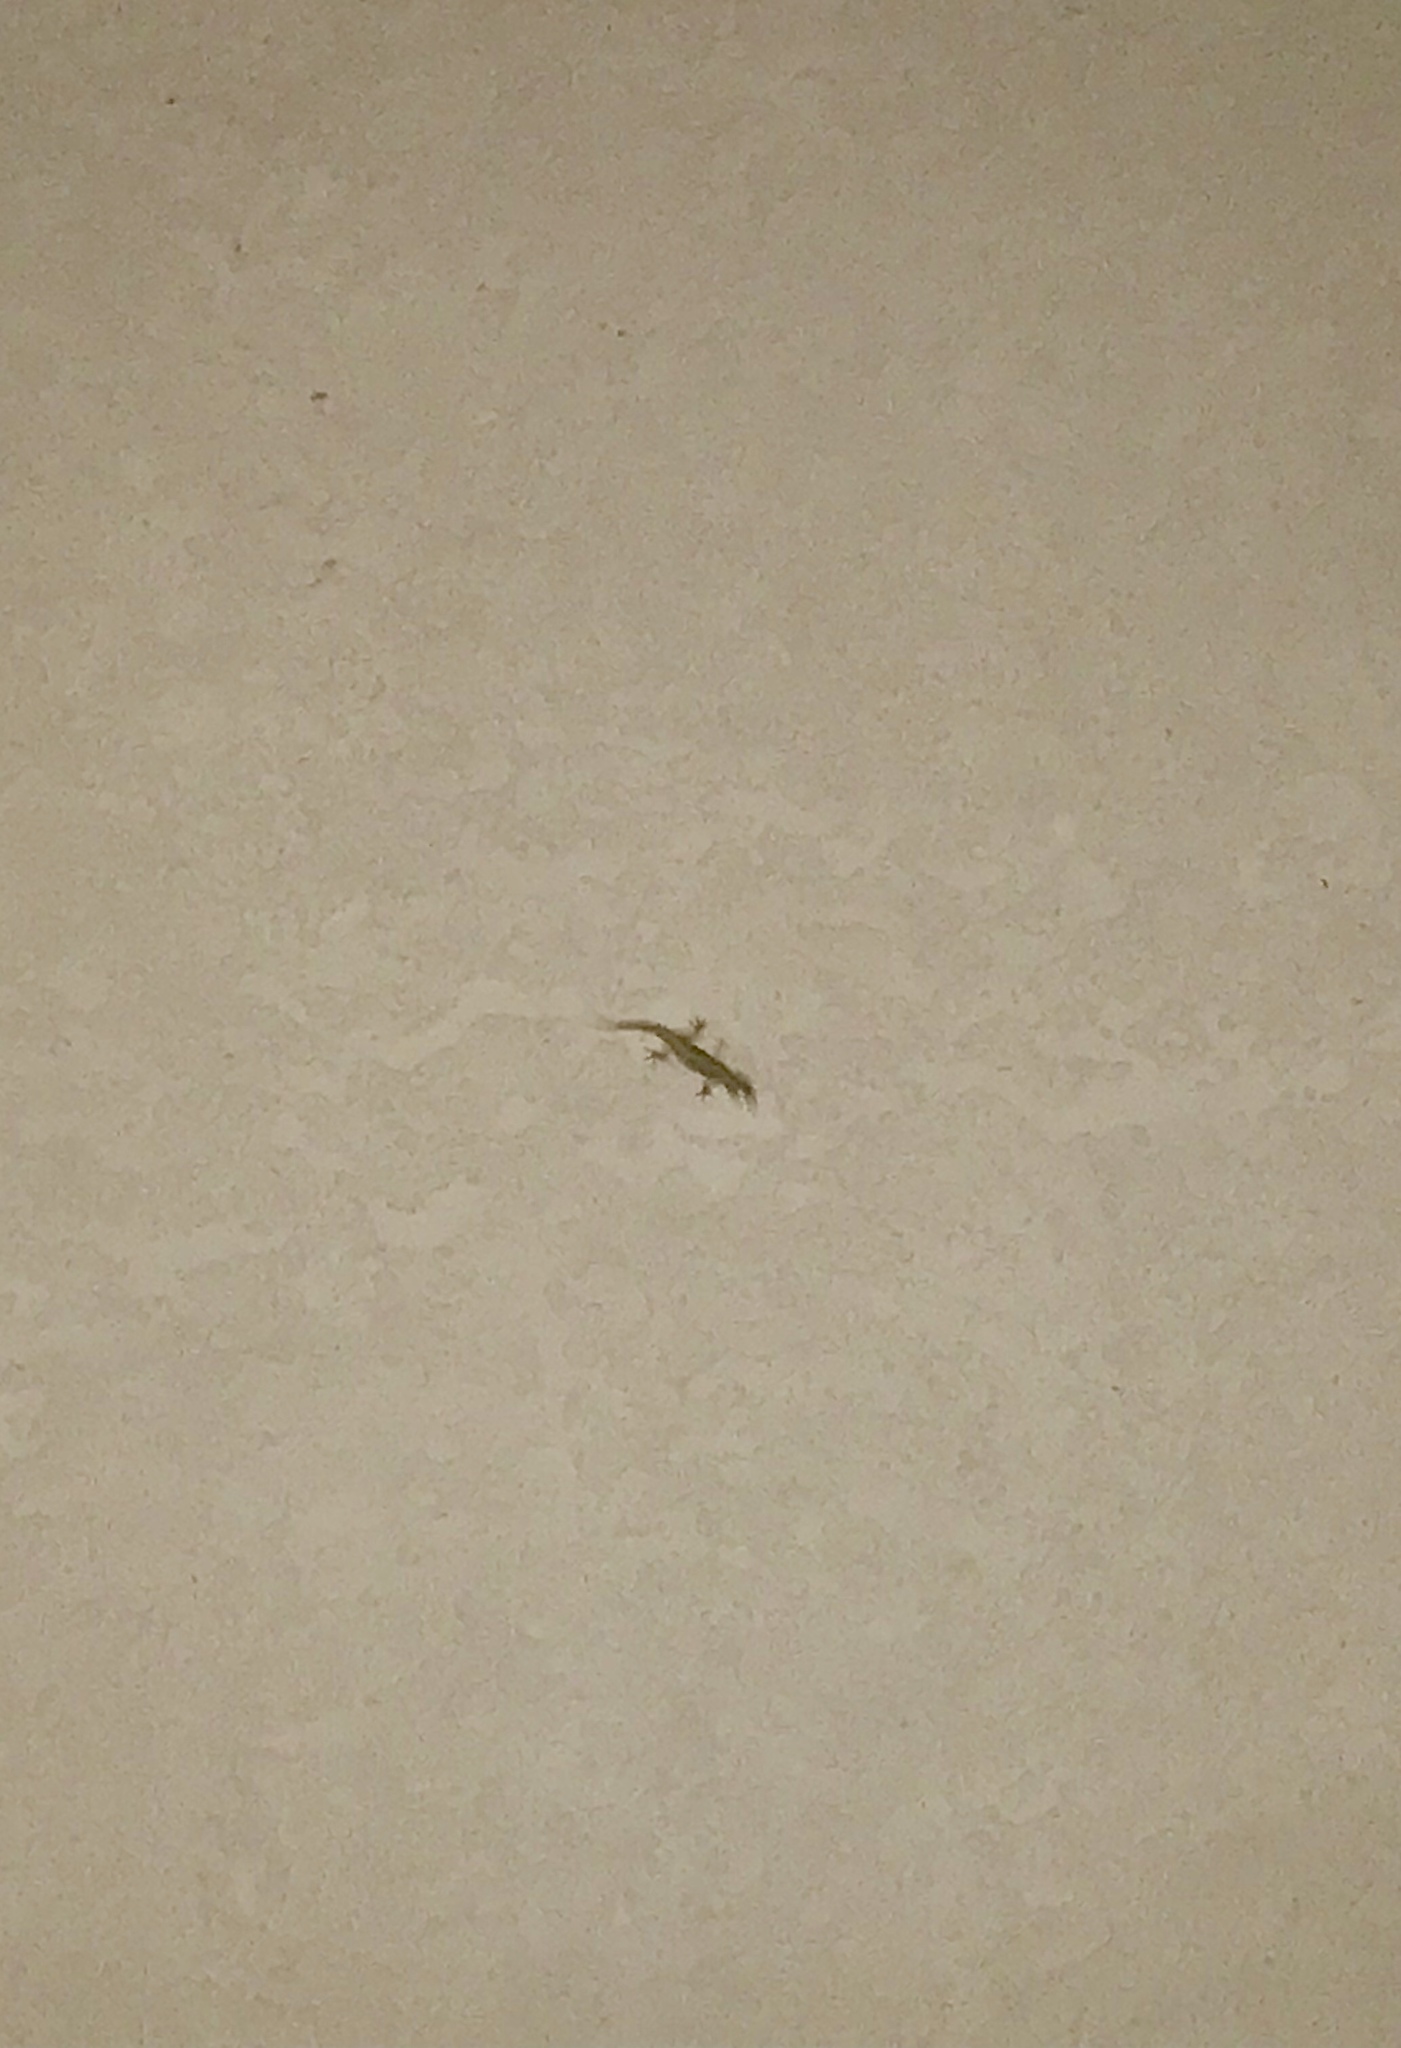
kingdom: Animalia
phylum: Chordata
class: Squamata
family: Gekkonidae
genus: Hemidactylus
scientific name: Hemidactylus turcicus
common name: Turkish gecko
